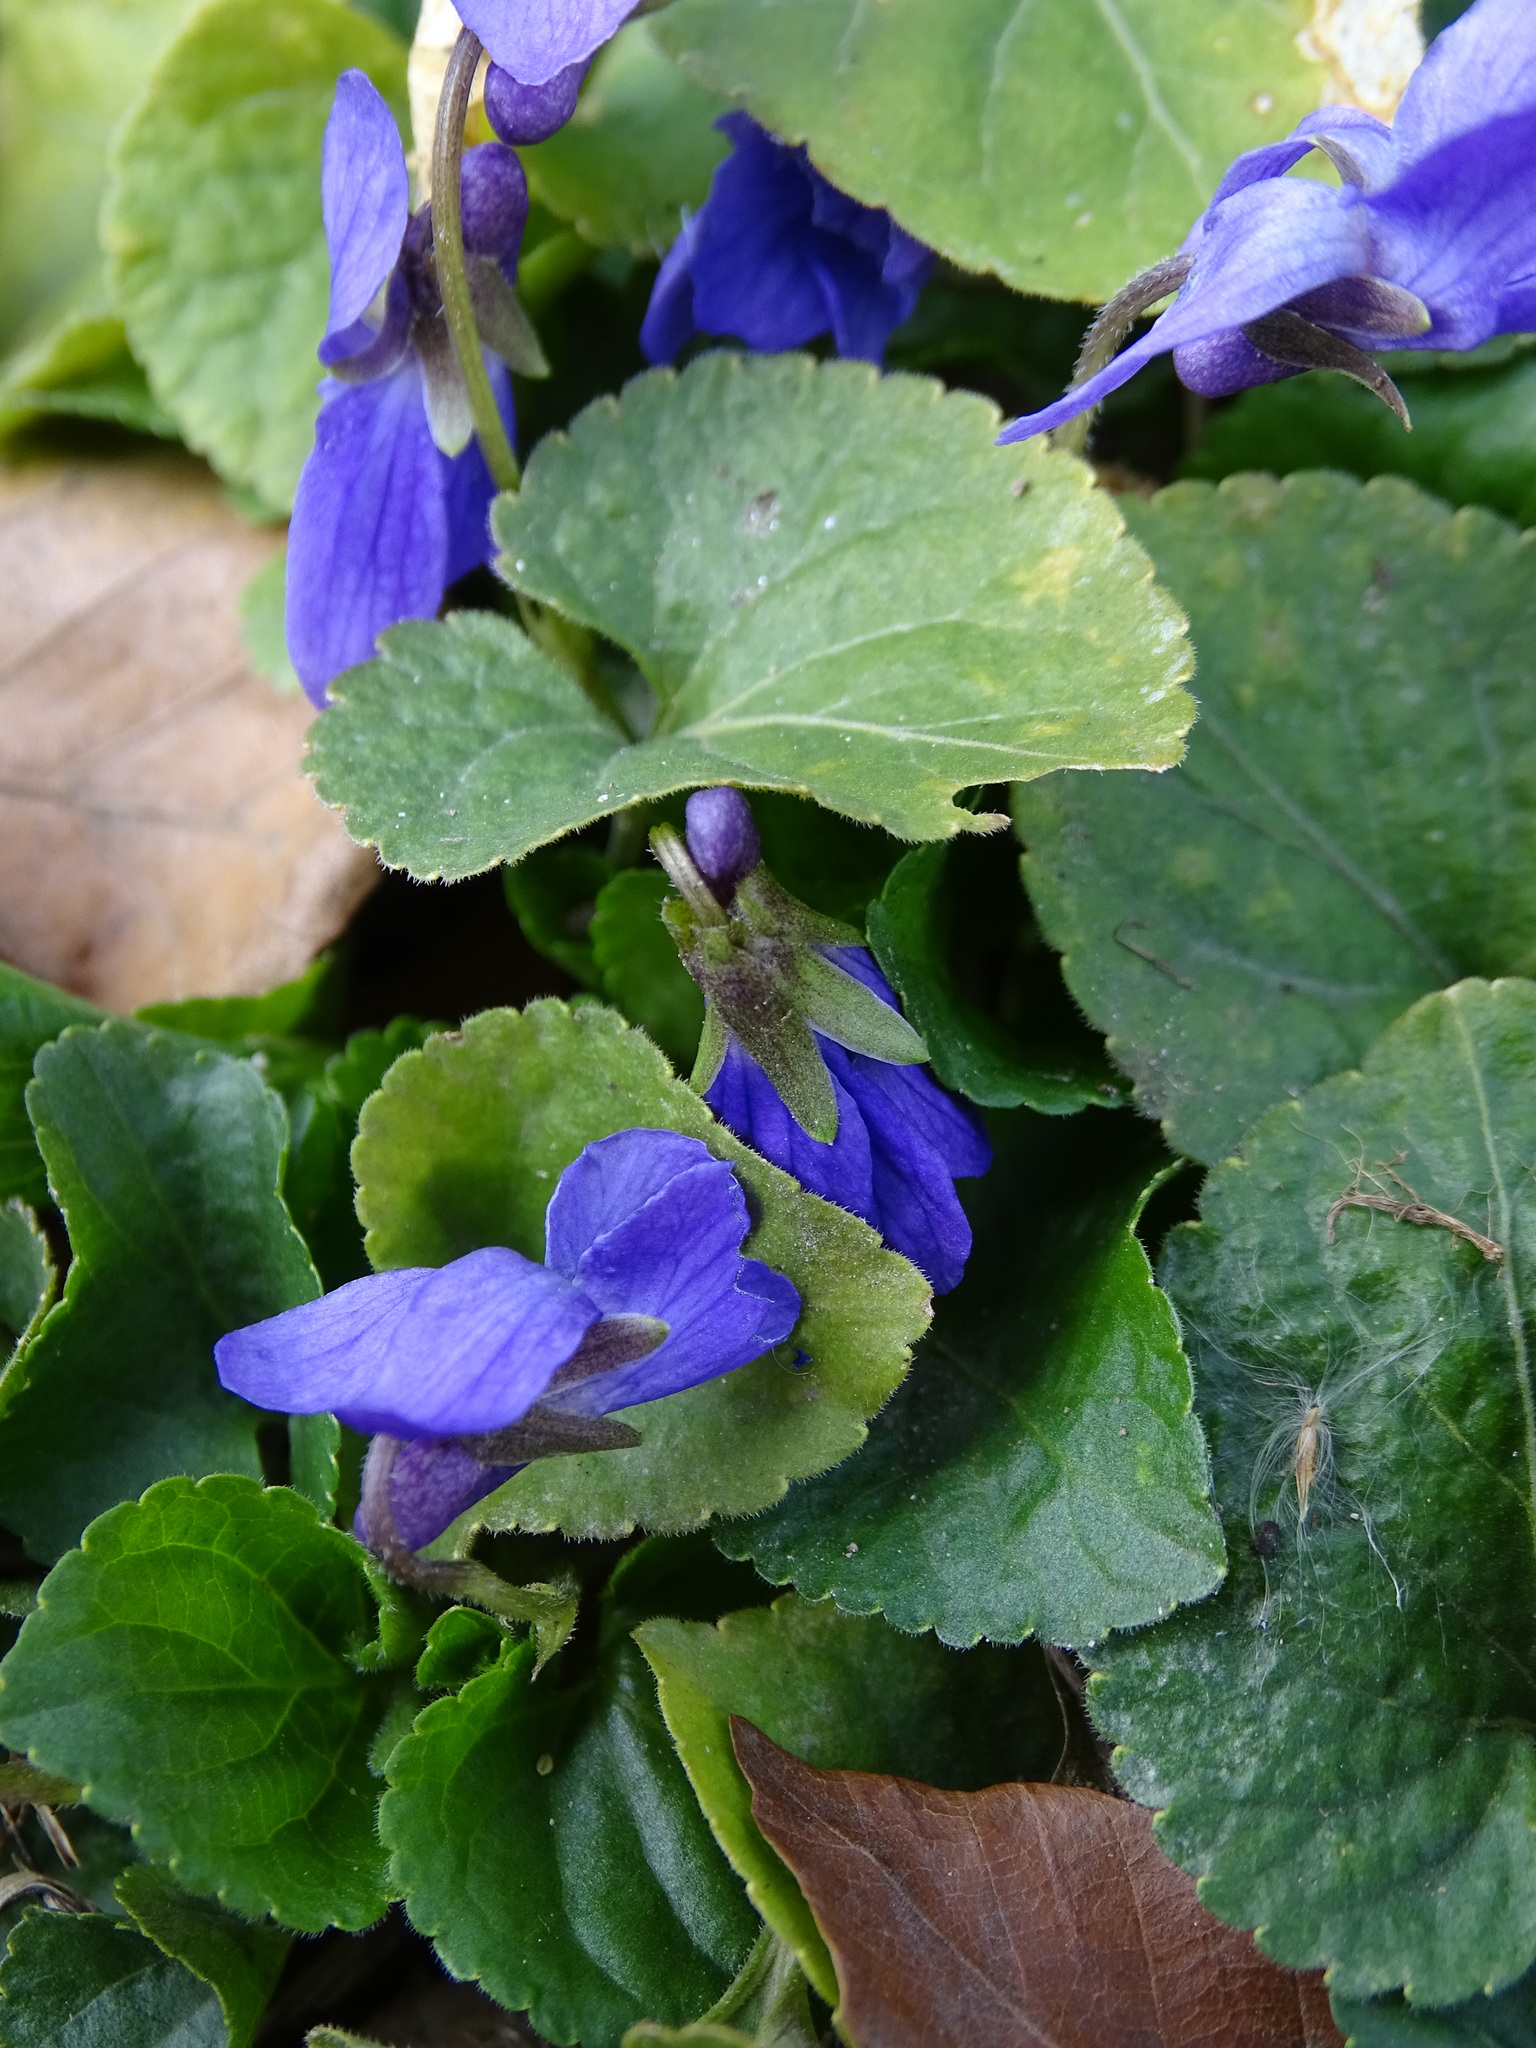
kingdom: Plantae
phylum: Tracheophyta
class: Magnoliopsida
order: Malpighiales
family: Violaceae
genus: Viola
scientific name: Viola odorata
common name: Sweet violet
